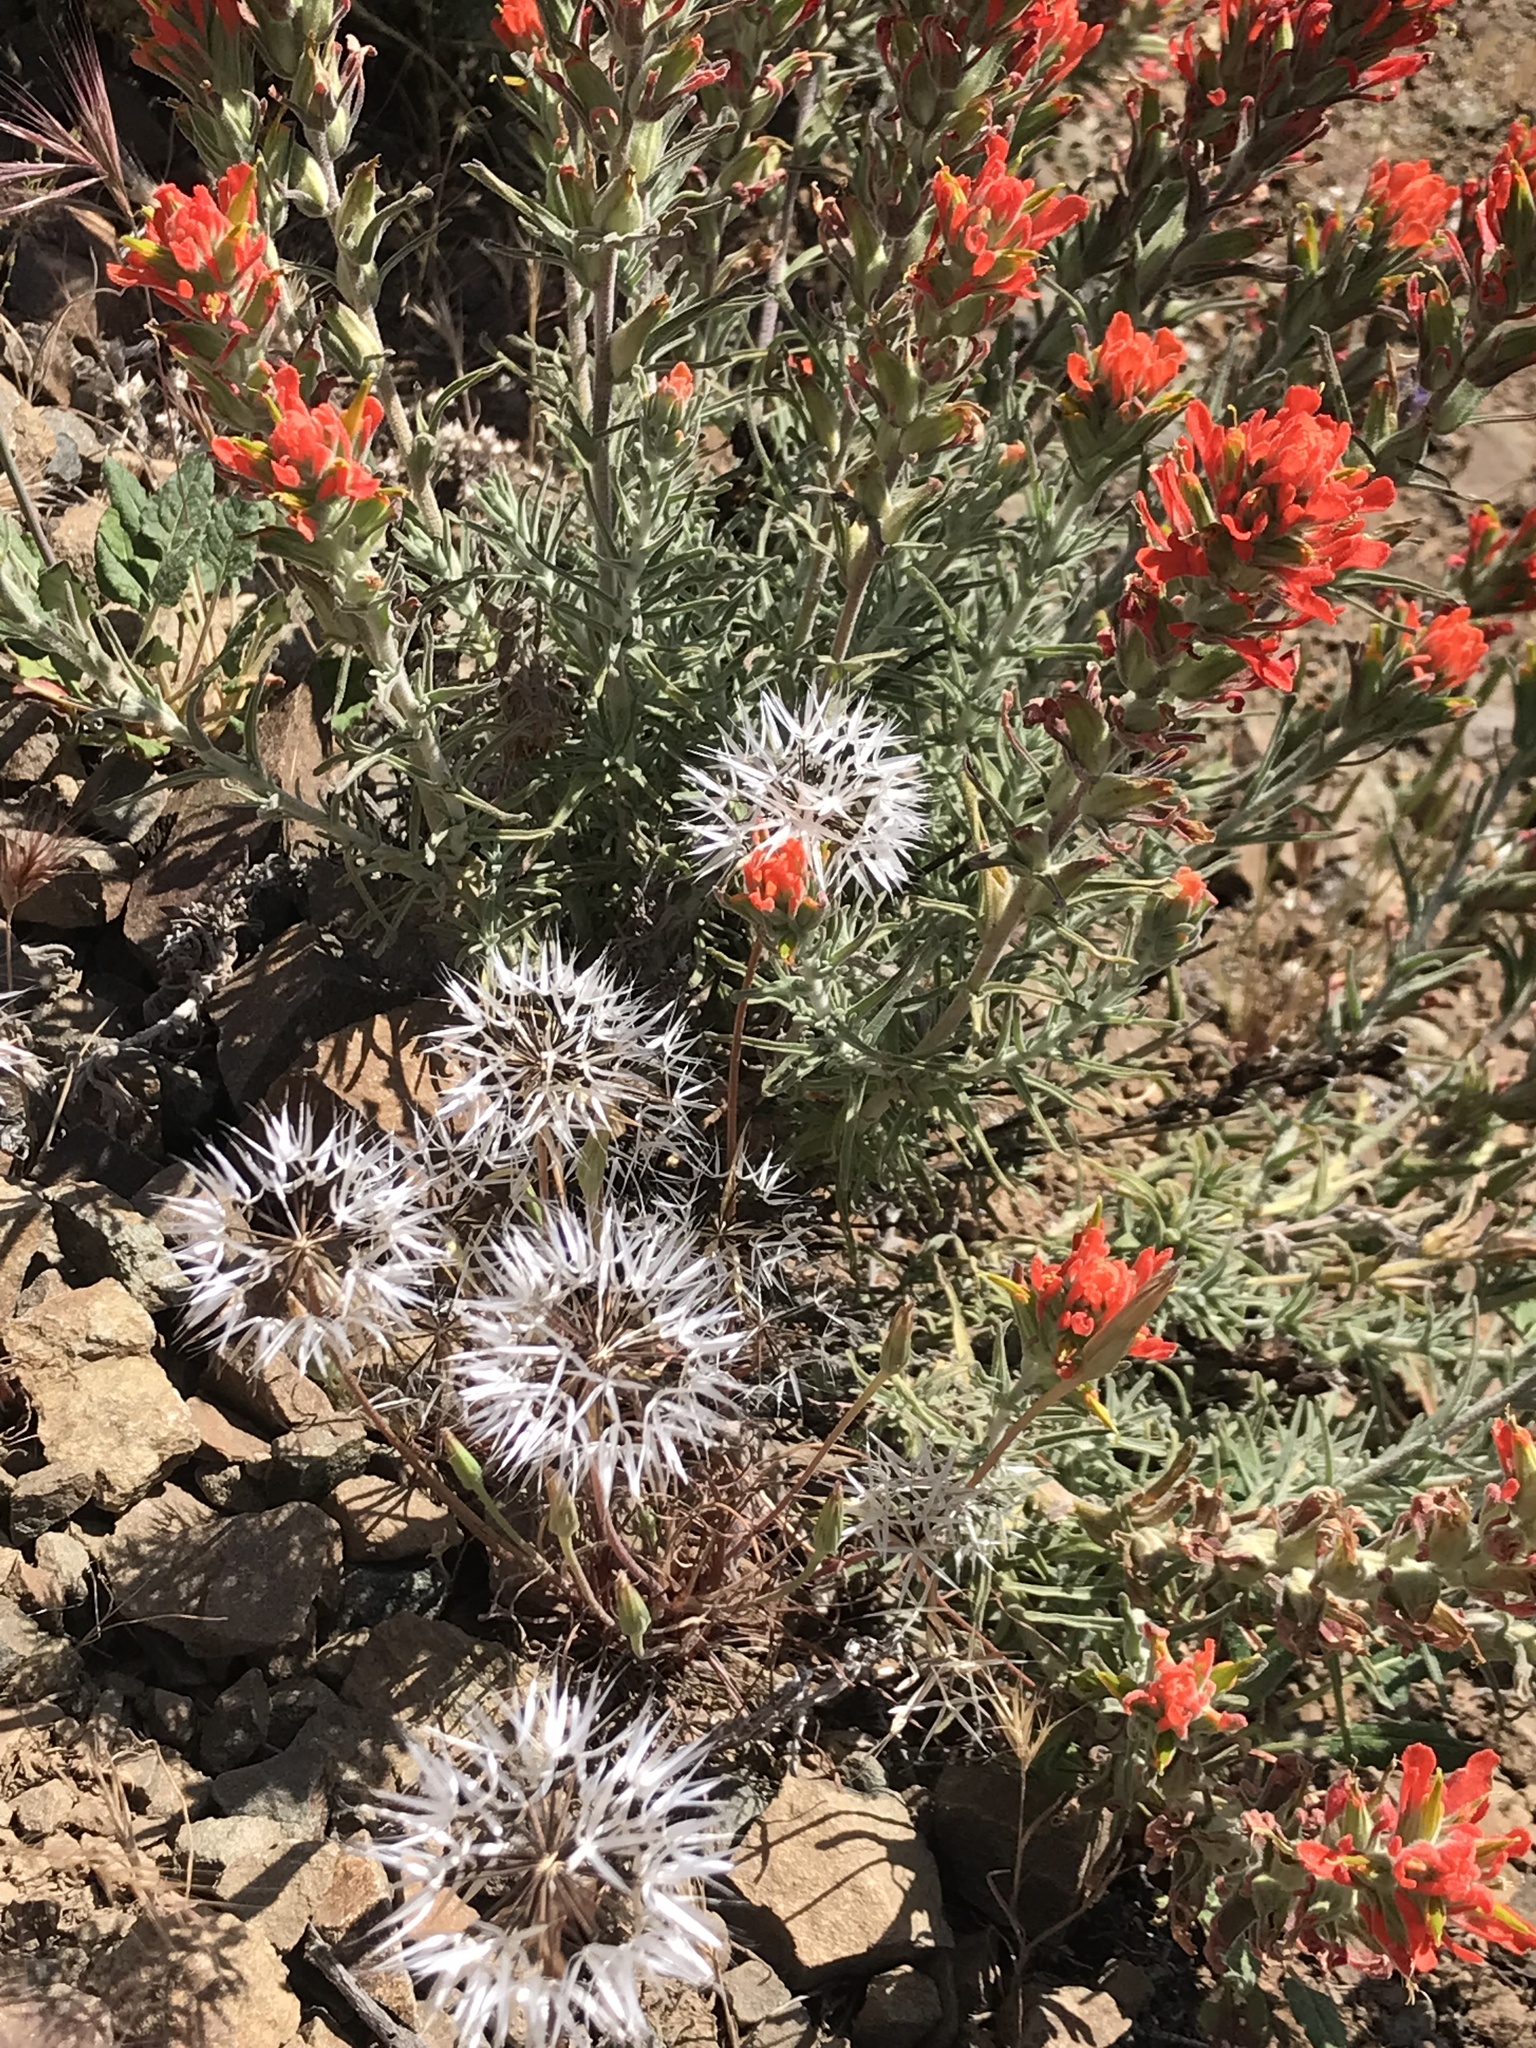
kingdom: Plantae
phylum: Tracheophyta
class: Magnoliopsida
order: Asterales
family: Asteraceae
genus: Microseris
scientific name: Microseris lindleyi
